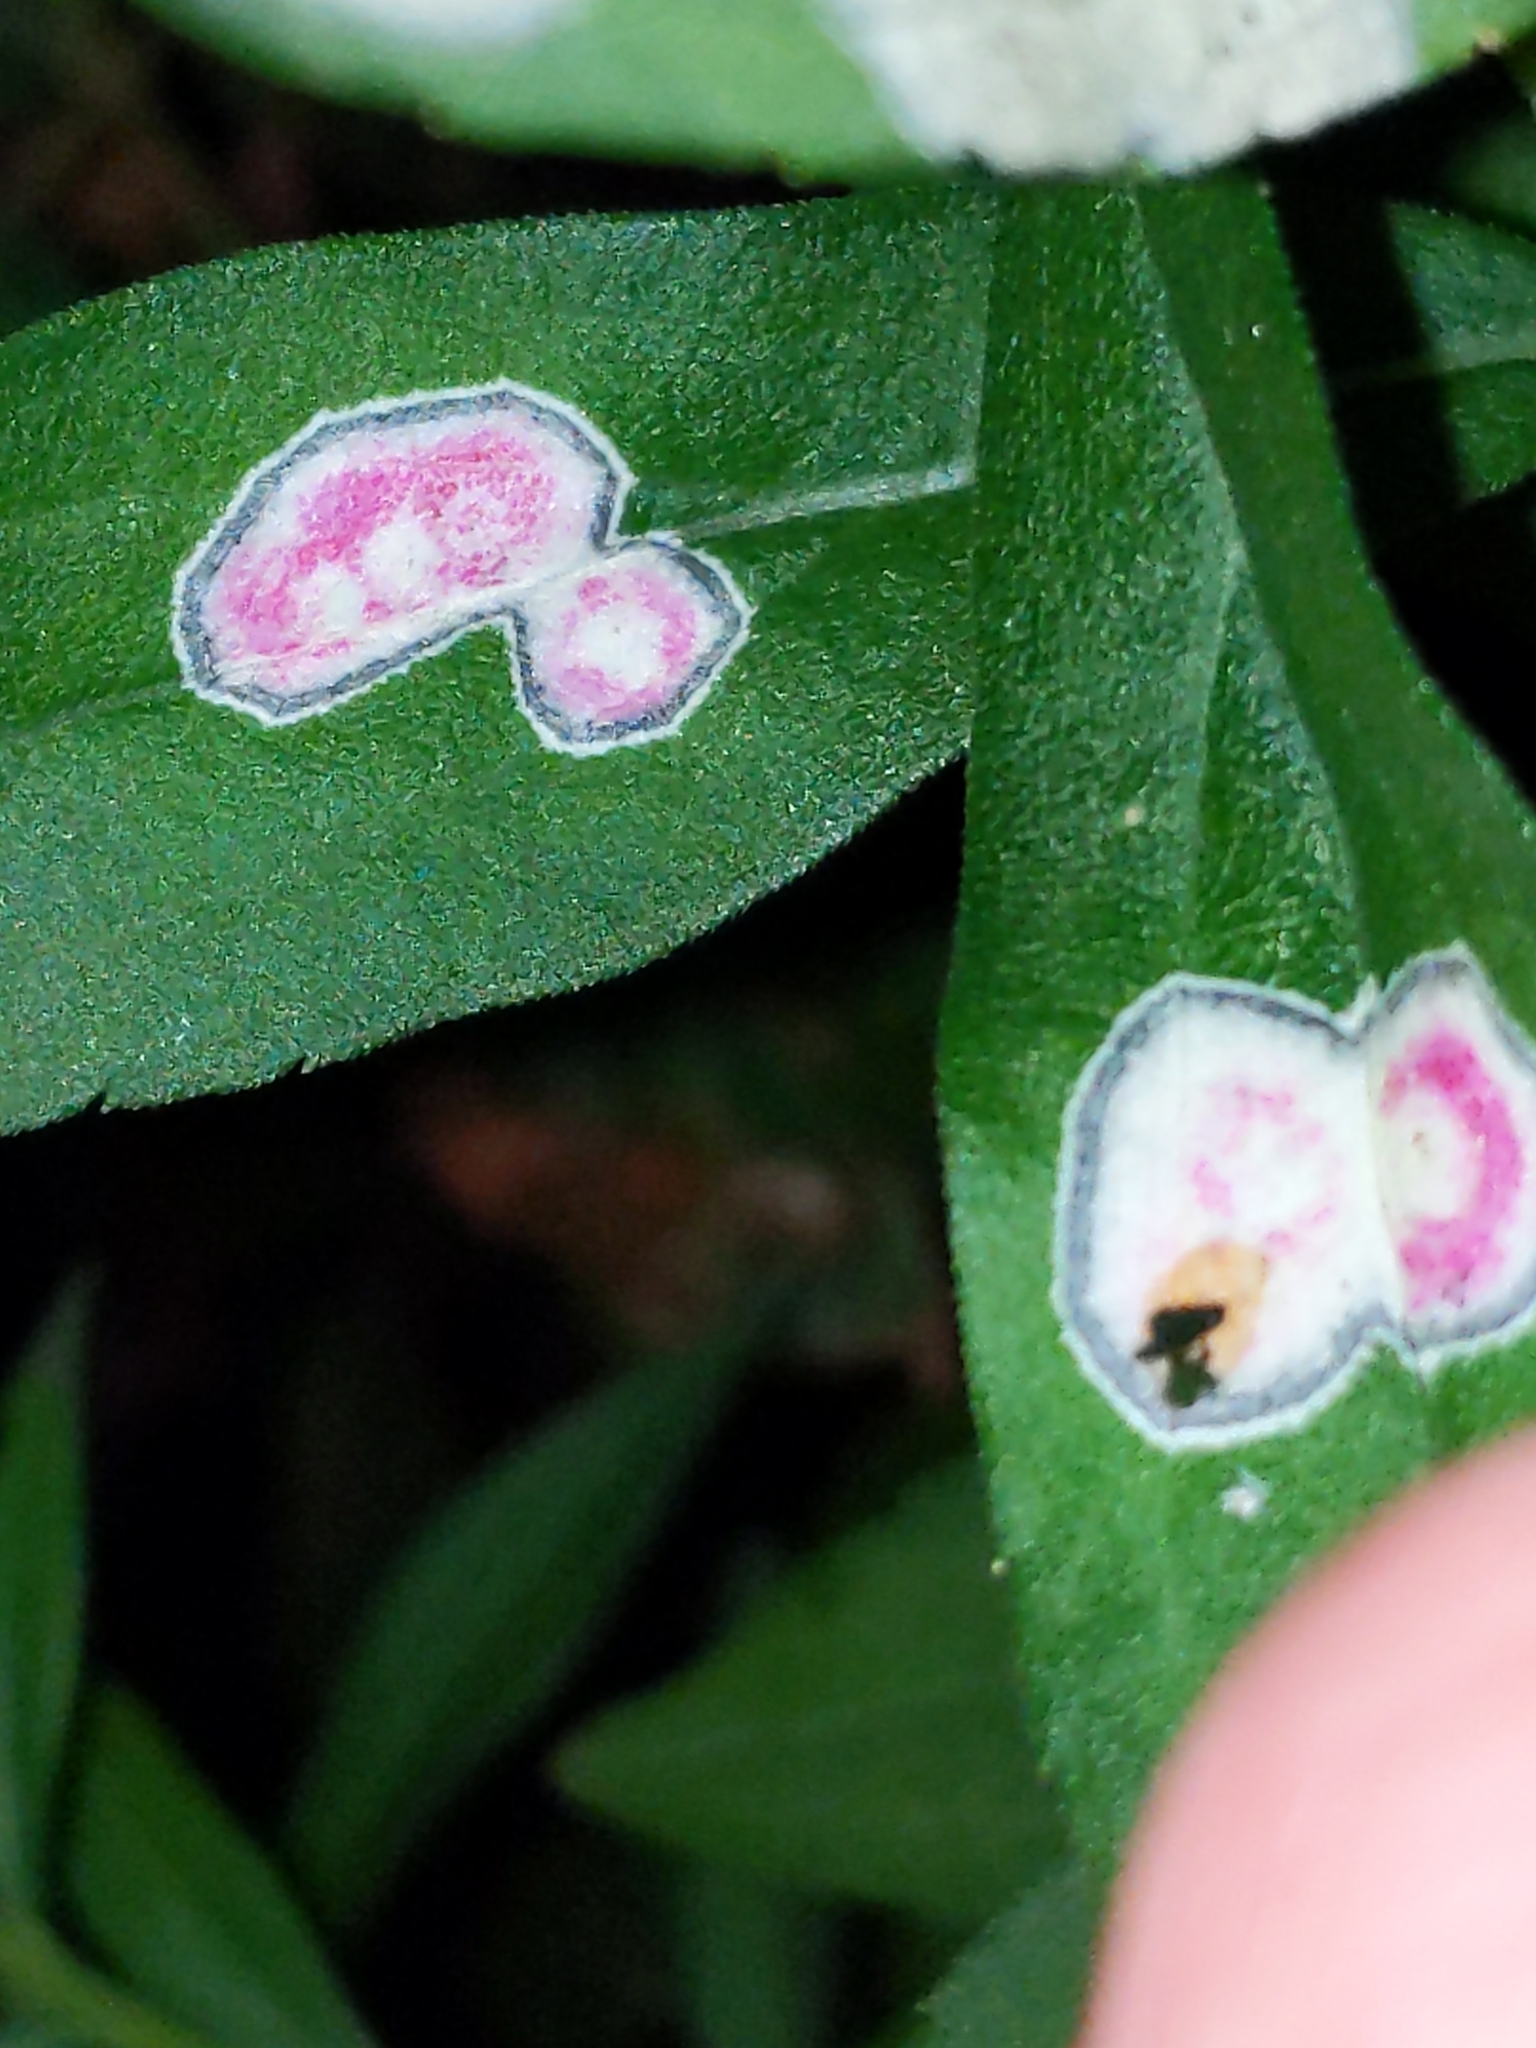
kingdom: Animalia
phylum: Arthropoda
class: Insecta
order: Diptera
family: Cecidomyiidae
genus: Asteromyia
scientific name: Asteromyia carbonifera
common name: Carbonifera goldenrod gall midge
